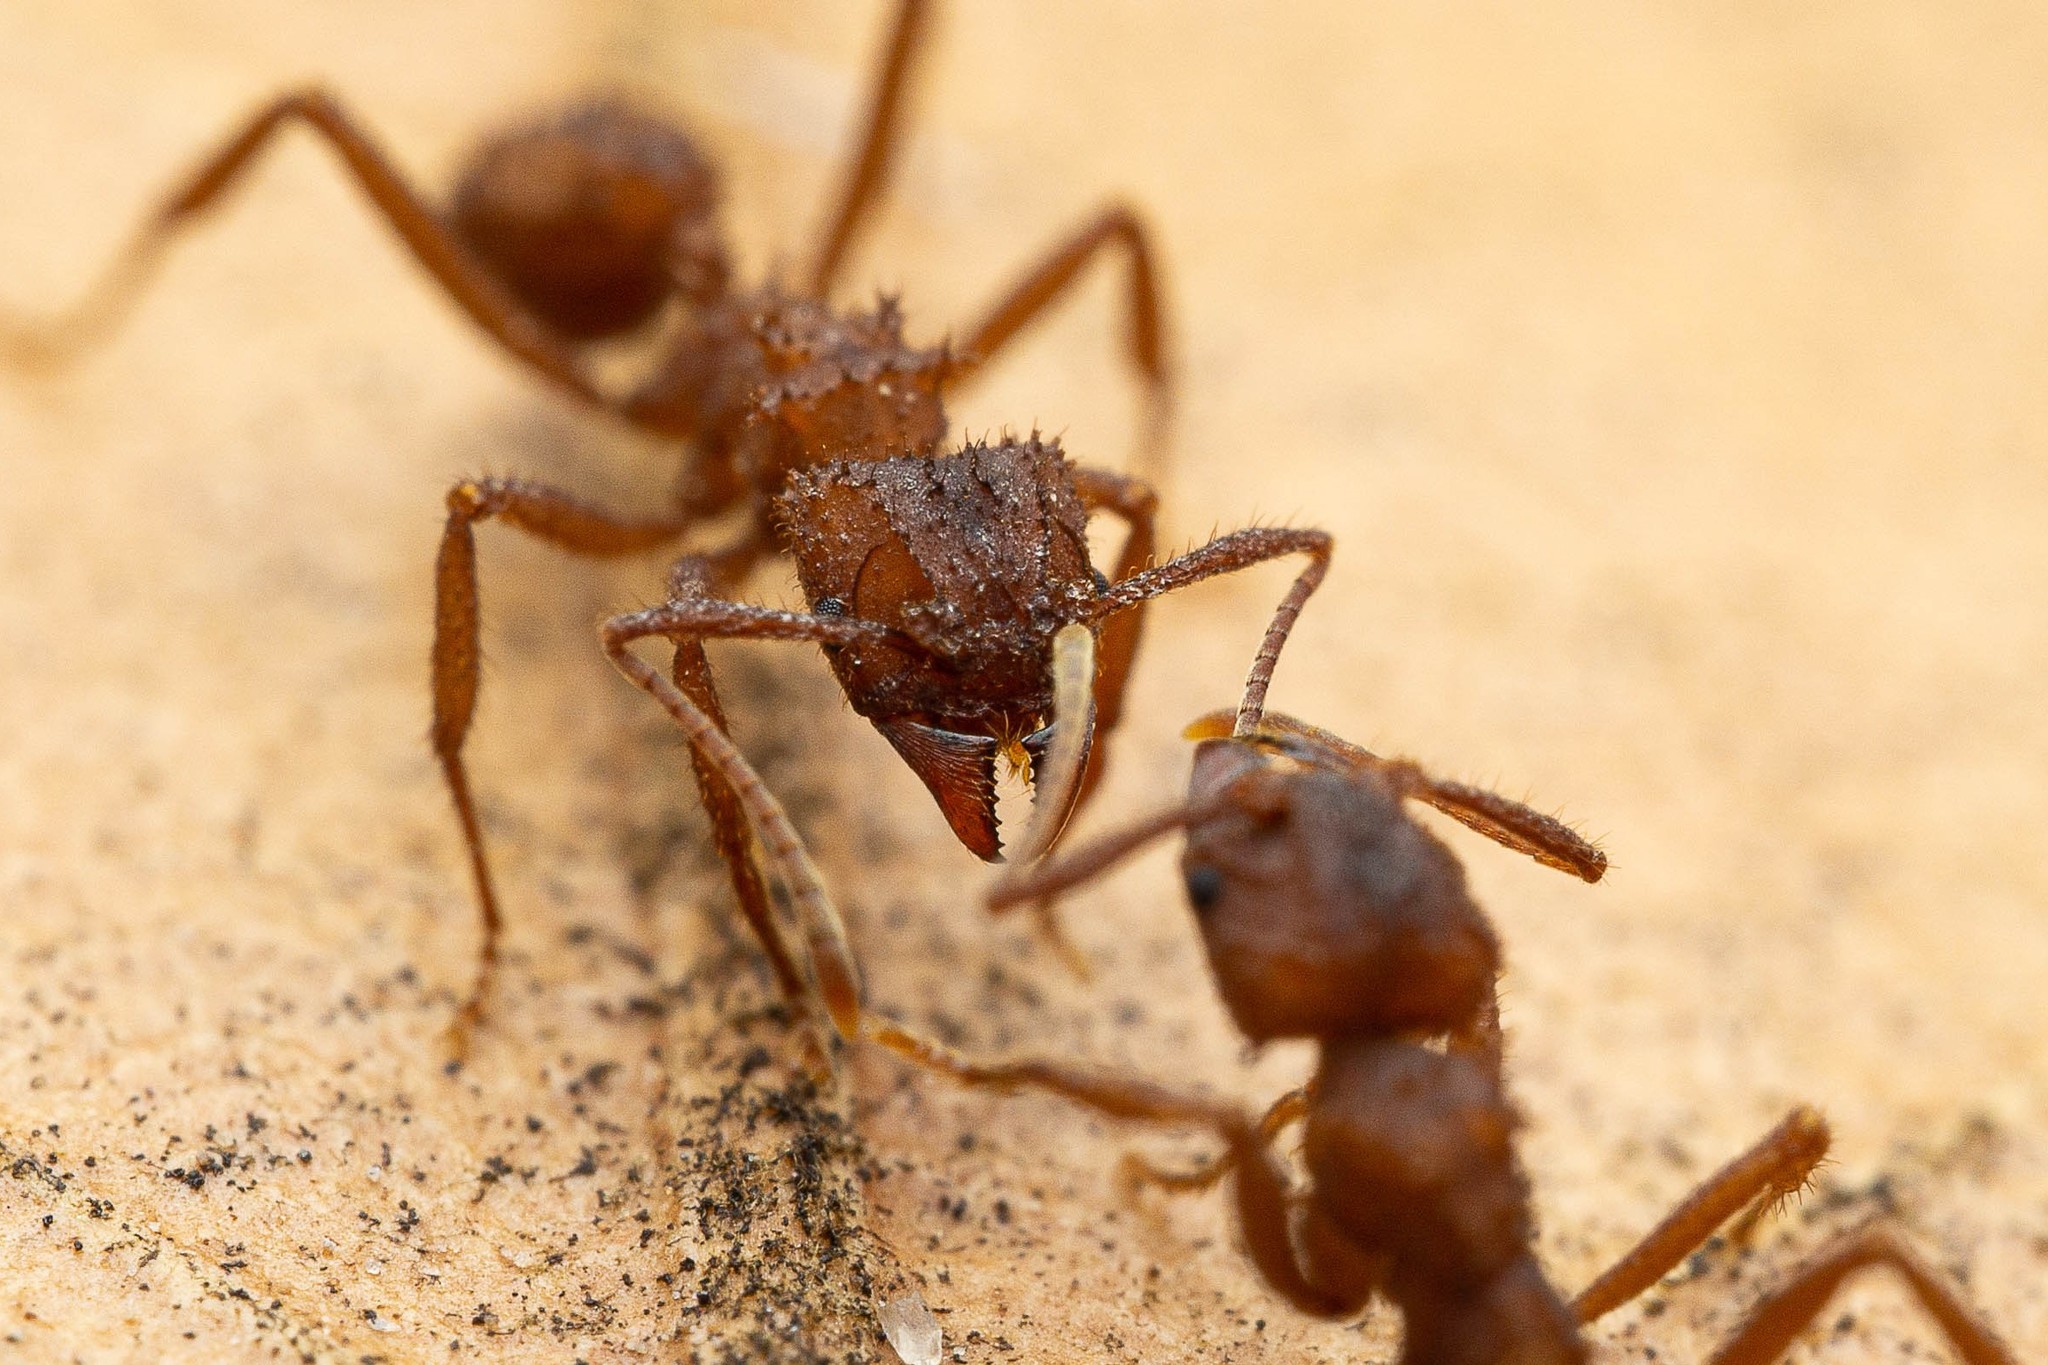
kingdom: Animalia
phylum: Arthropoda
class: Insecta
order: Hymenoptera
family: Formicidae
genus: Trachymyrmex
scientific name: Trachymyrmex arizonensis
